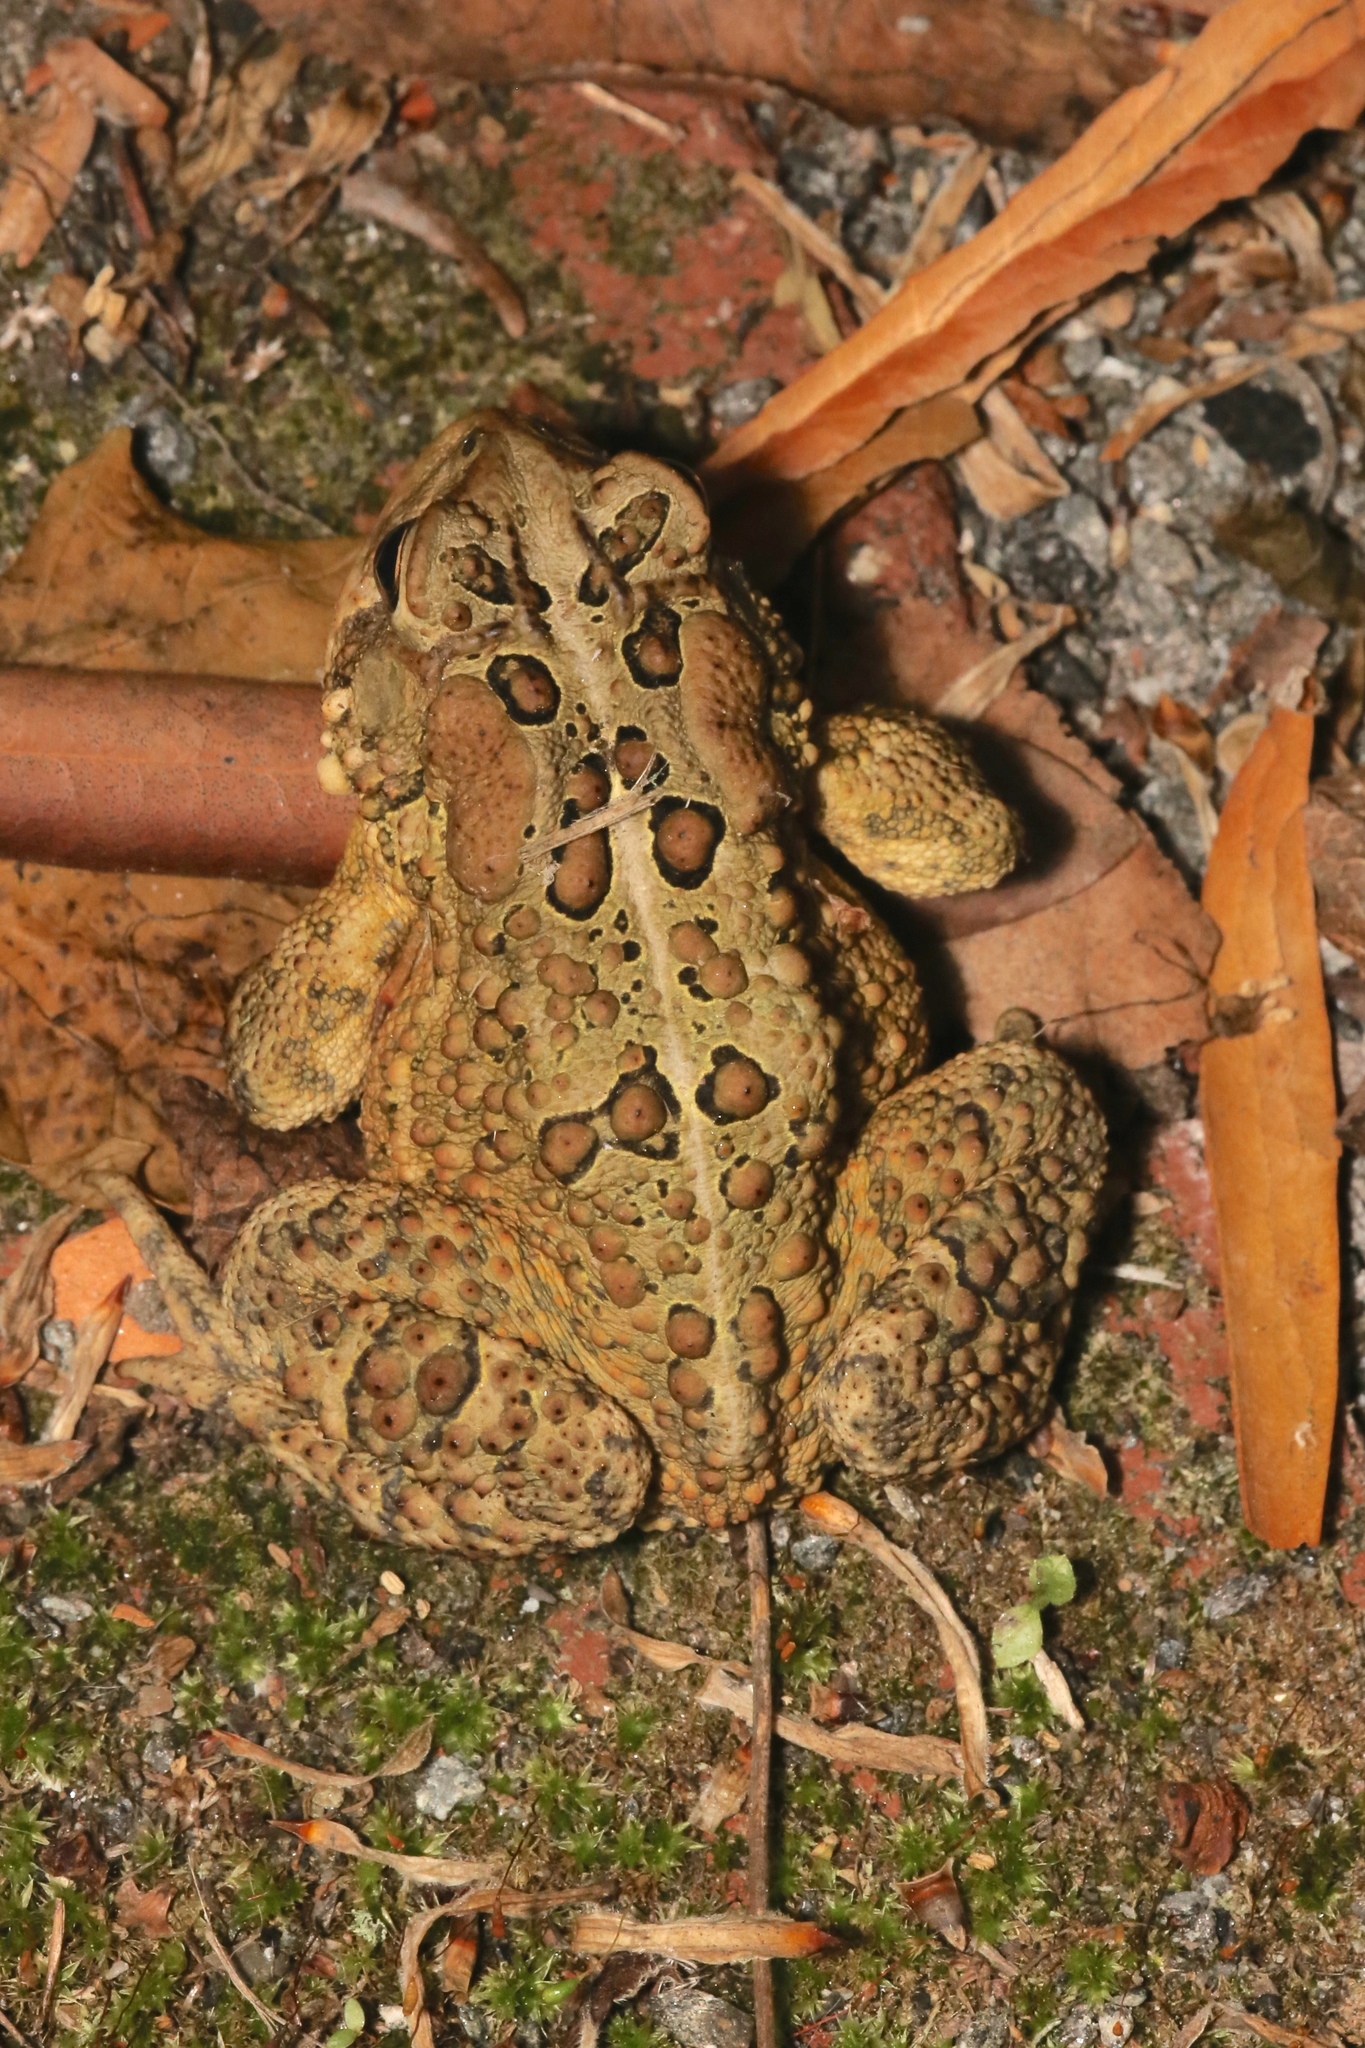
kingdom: Animalia
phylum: Chordata
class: Amphibia
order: Anura
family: Bufonidae
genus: Anaxyrus
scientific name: Anaxyrus americanus
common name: American toad
